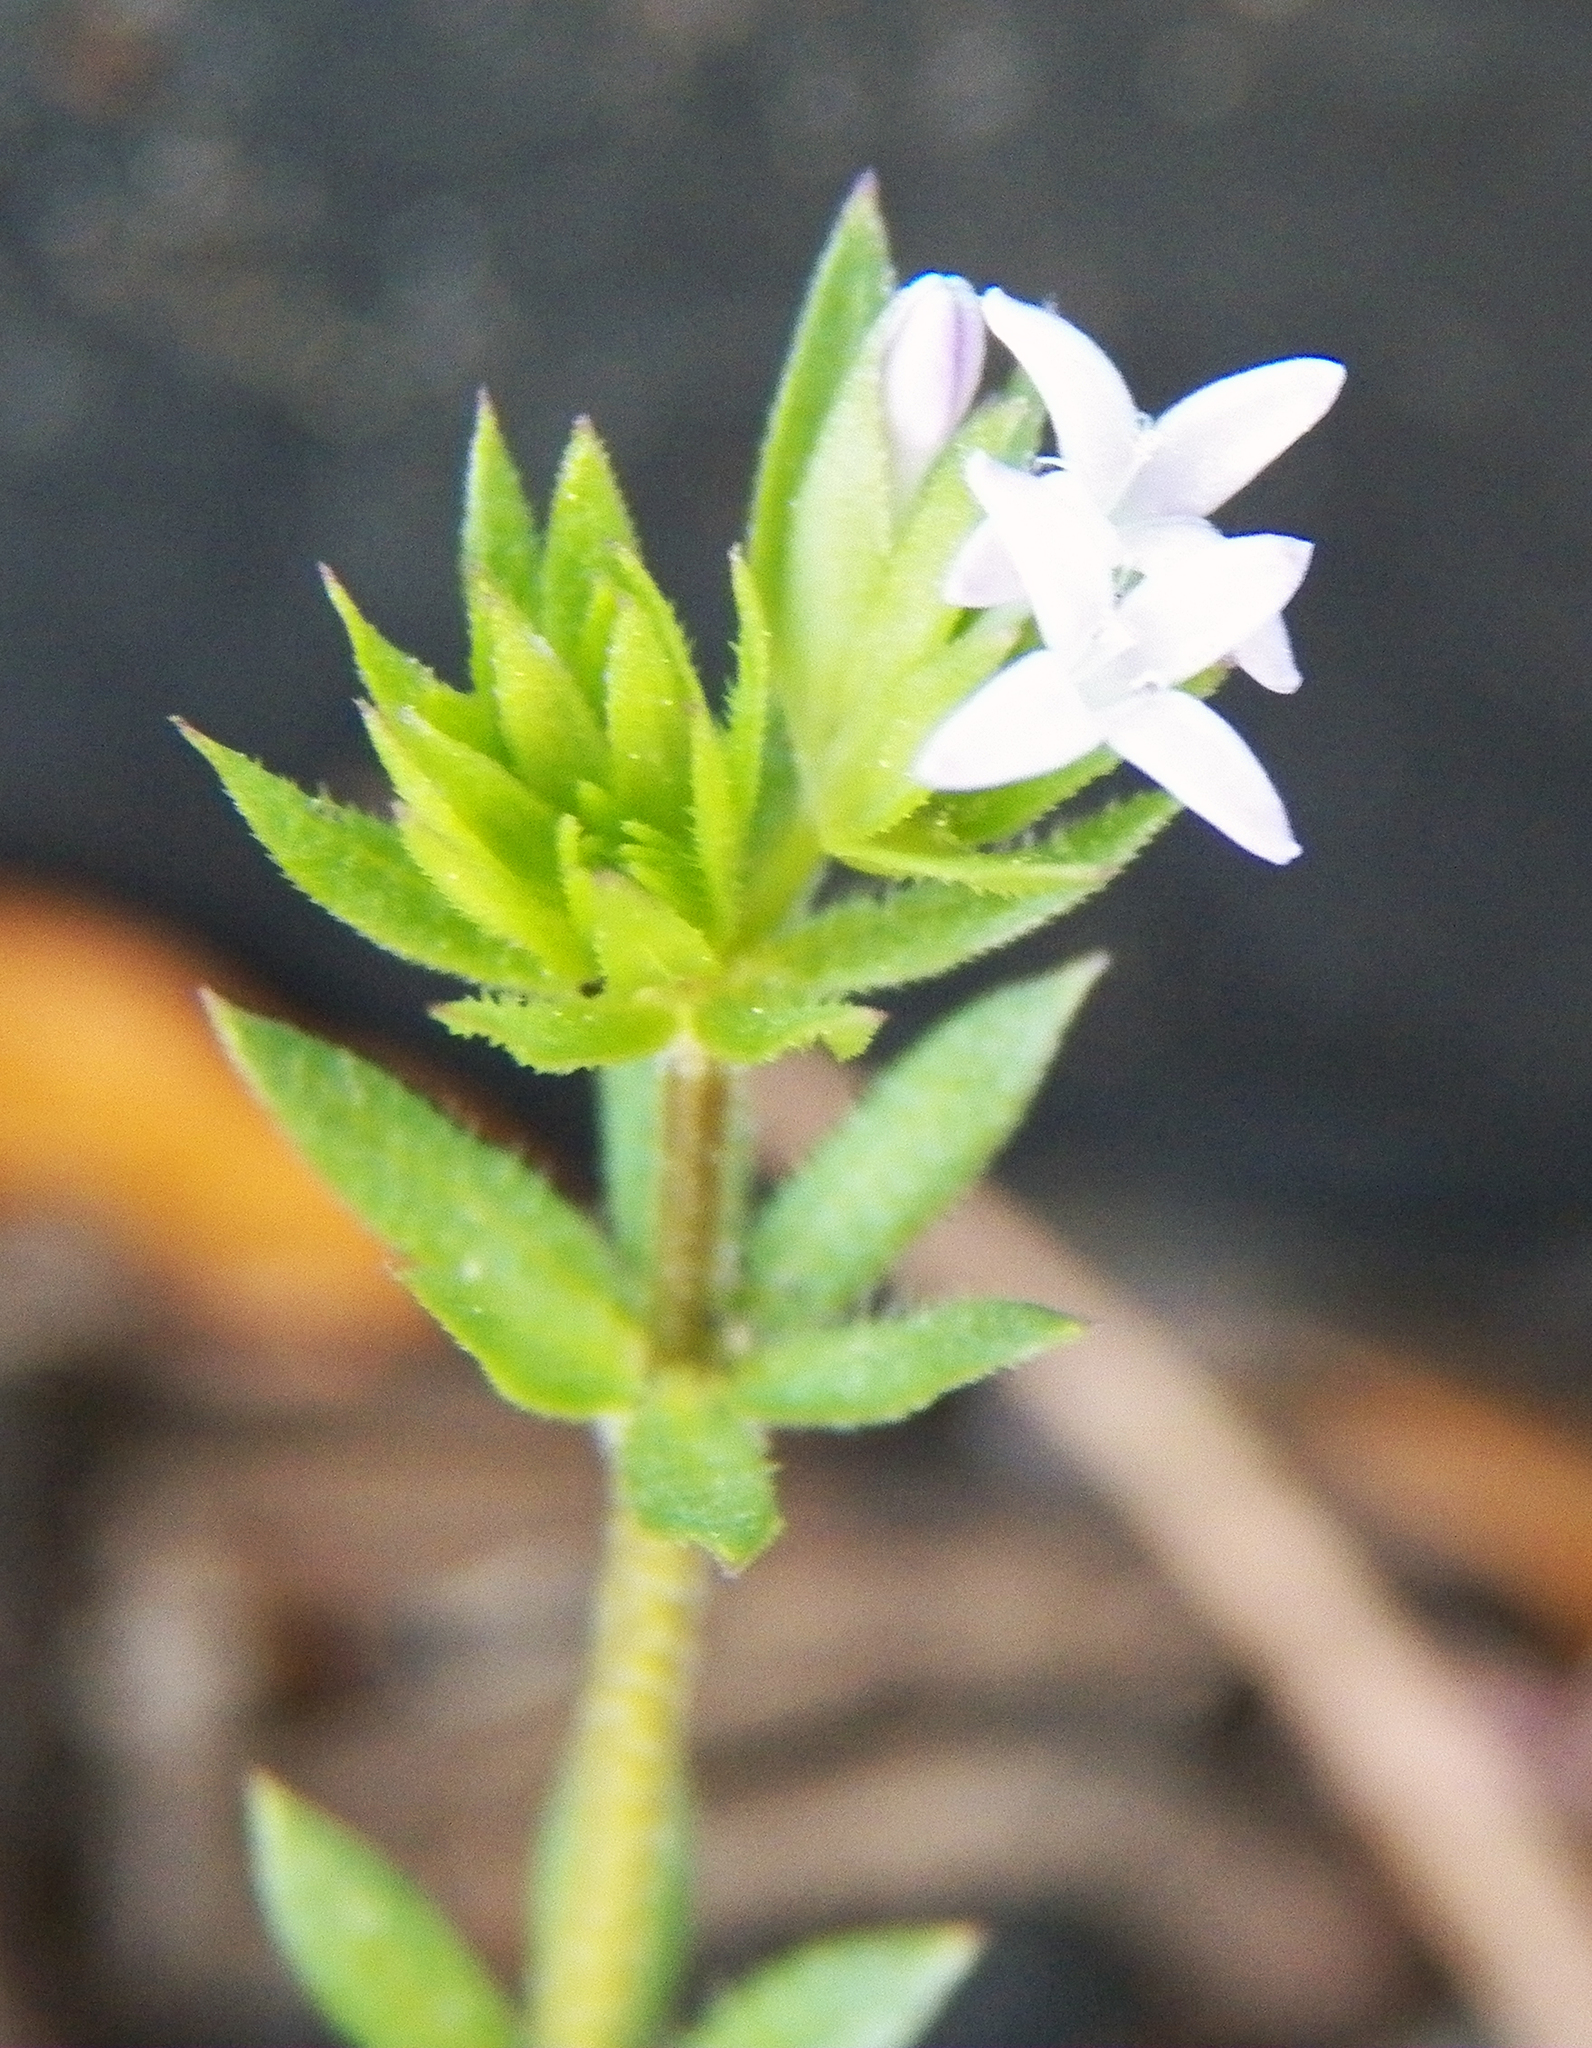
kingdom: Plantae
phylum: Tracheophyta
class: Magnoliopsida
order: Gentianales
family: Rubiaceae
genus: Sherardia
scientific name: Sherardia arvensis
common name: Field madder
